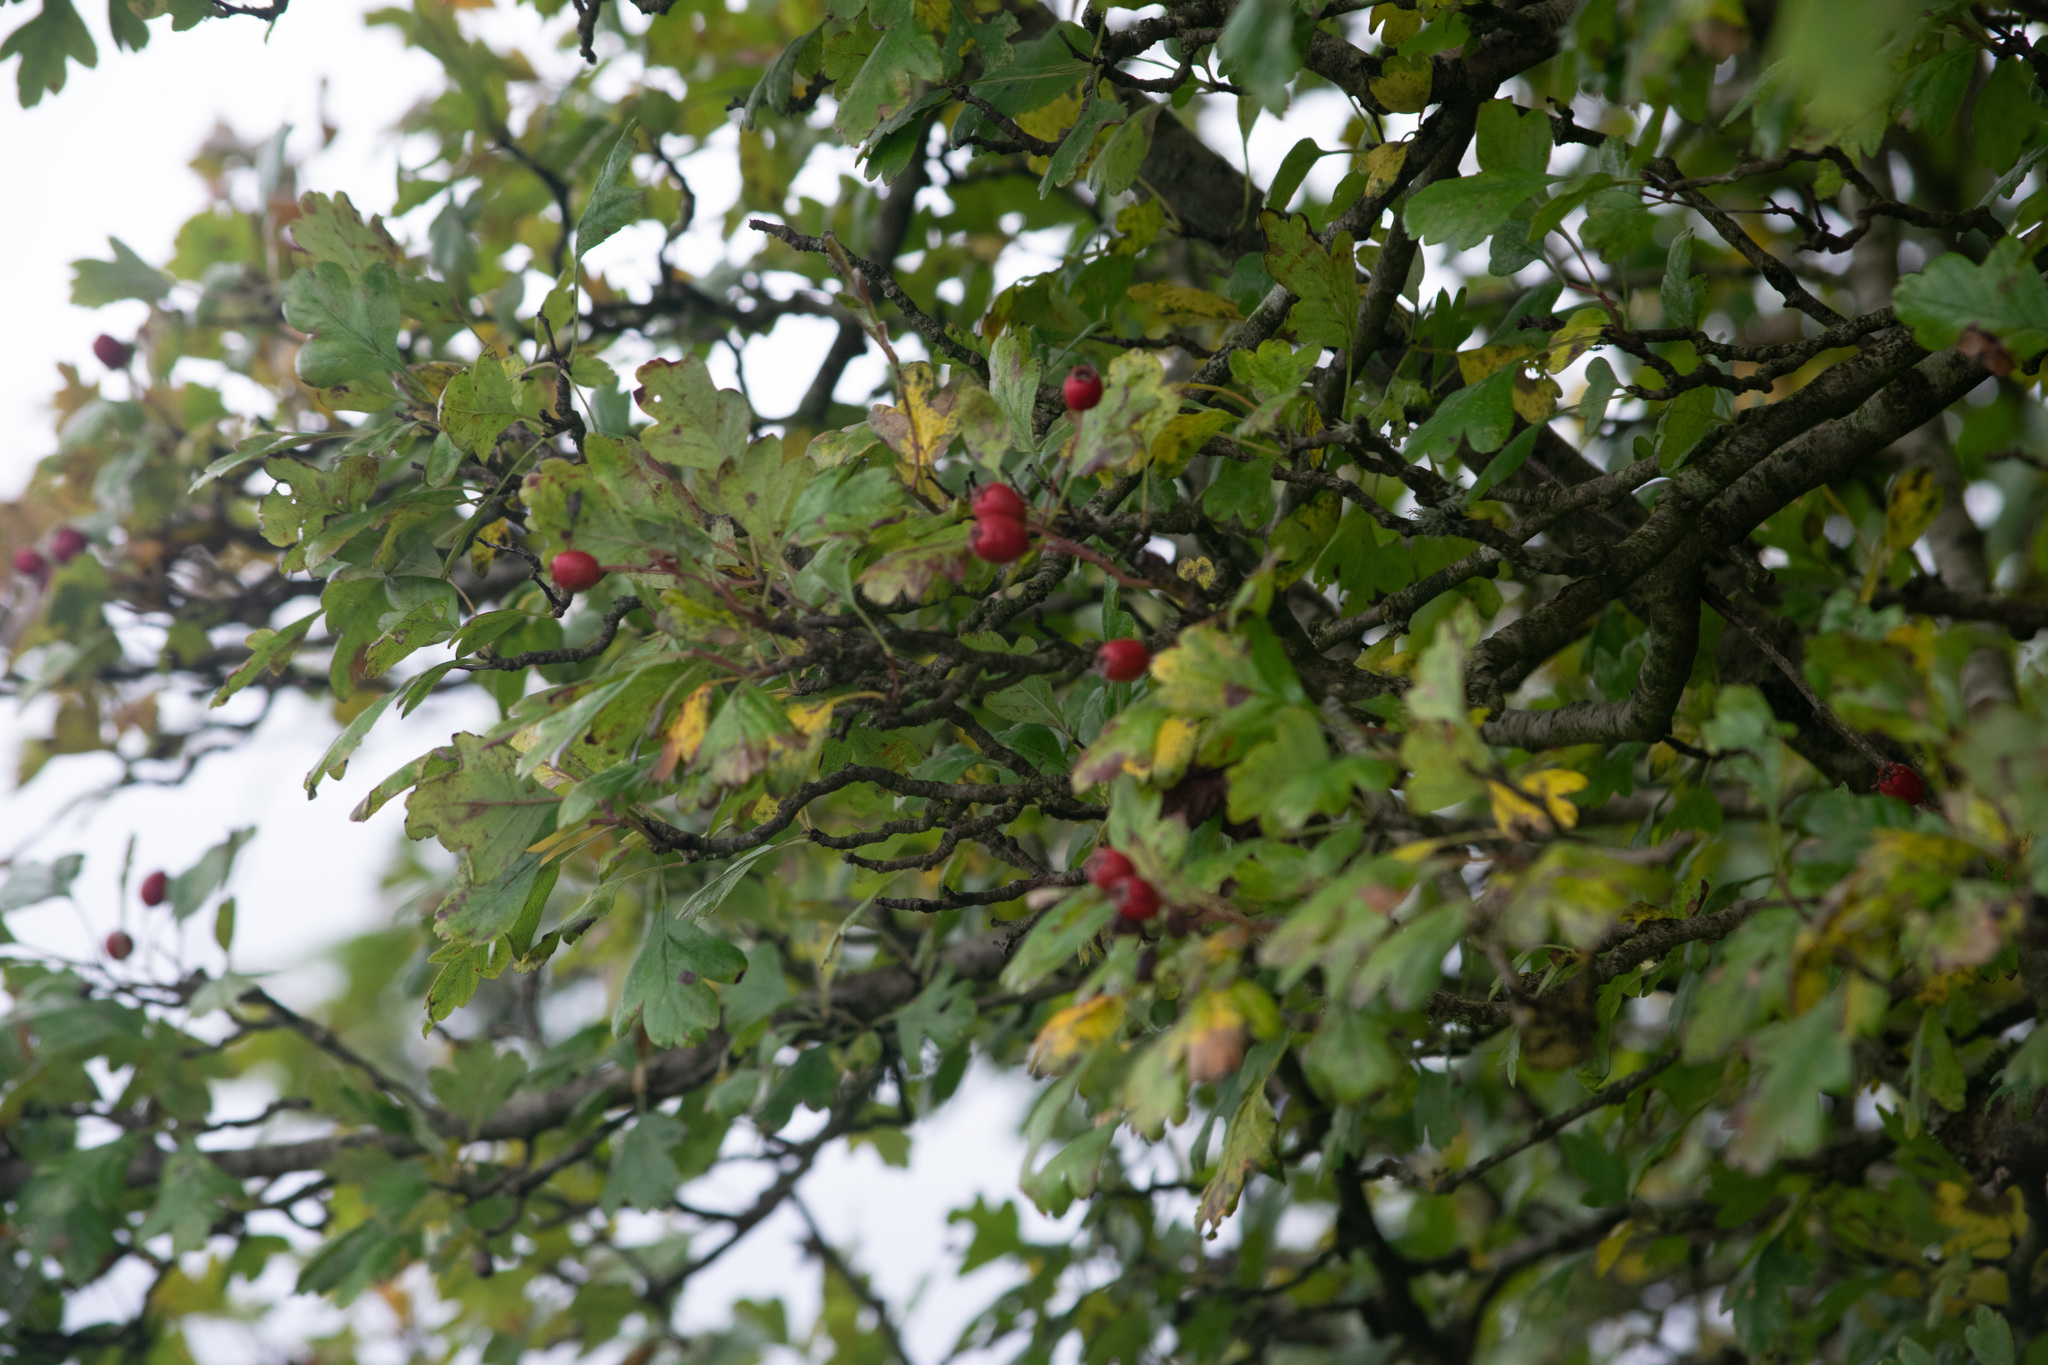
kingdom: Plantae
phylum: Tracheophyta
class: Magnoliopsida
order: Rosales
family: Rosaceae
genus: Crataegus
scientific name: Crataegus monogyna
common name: Hawthorn
